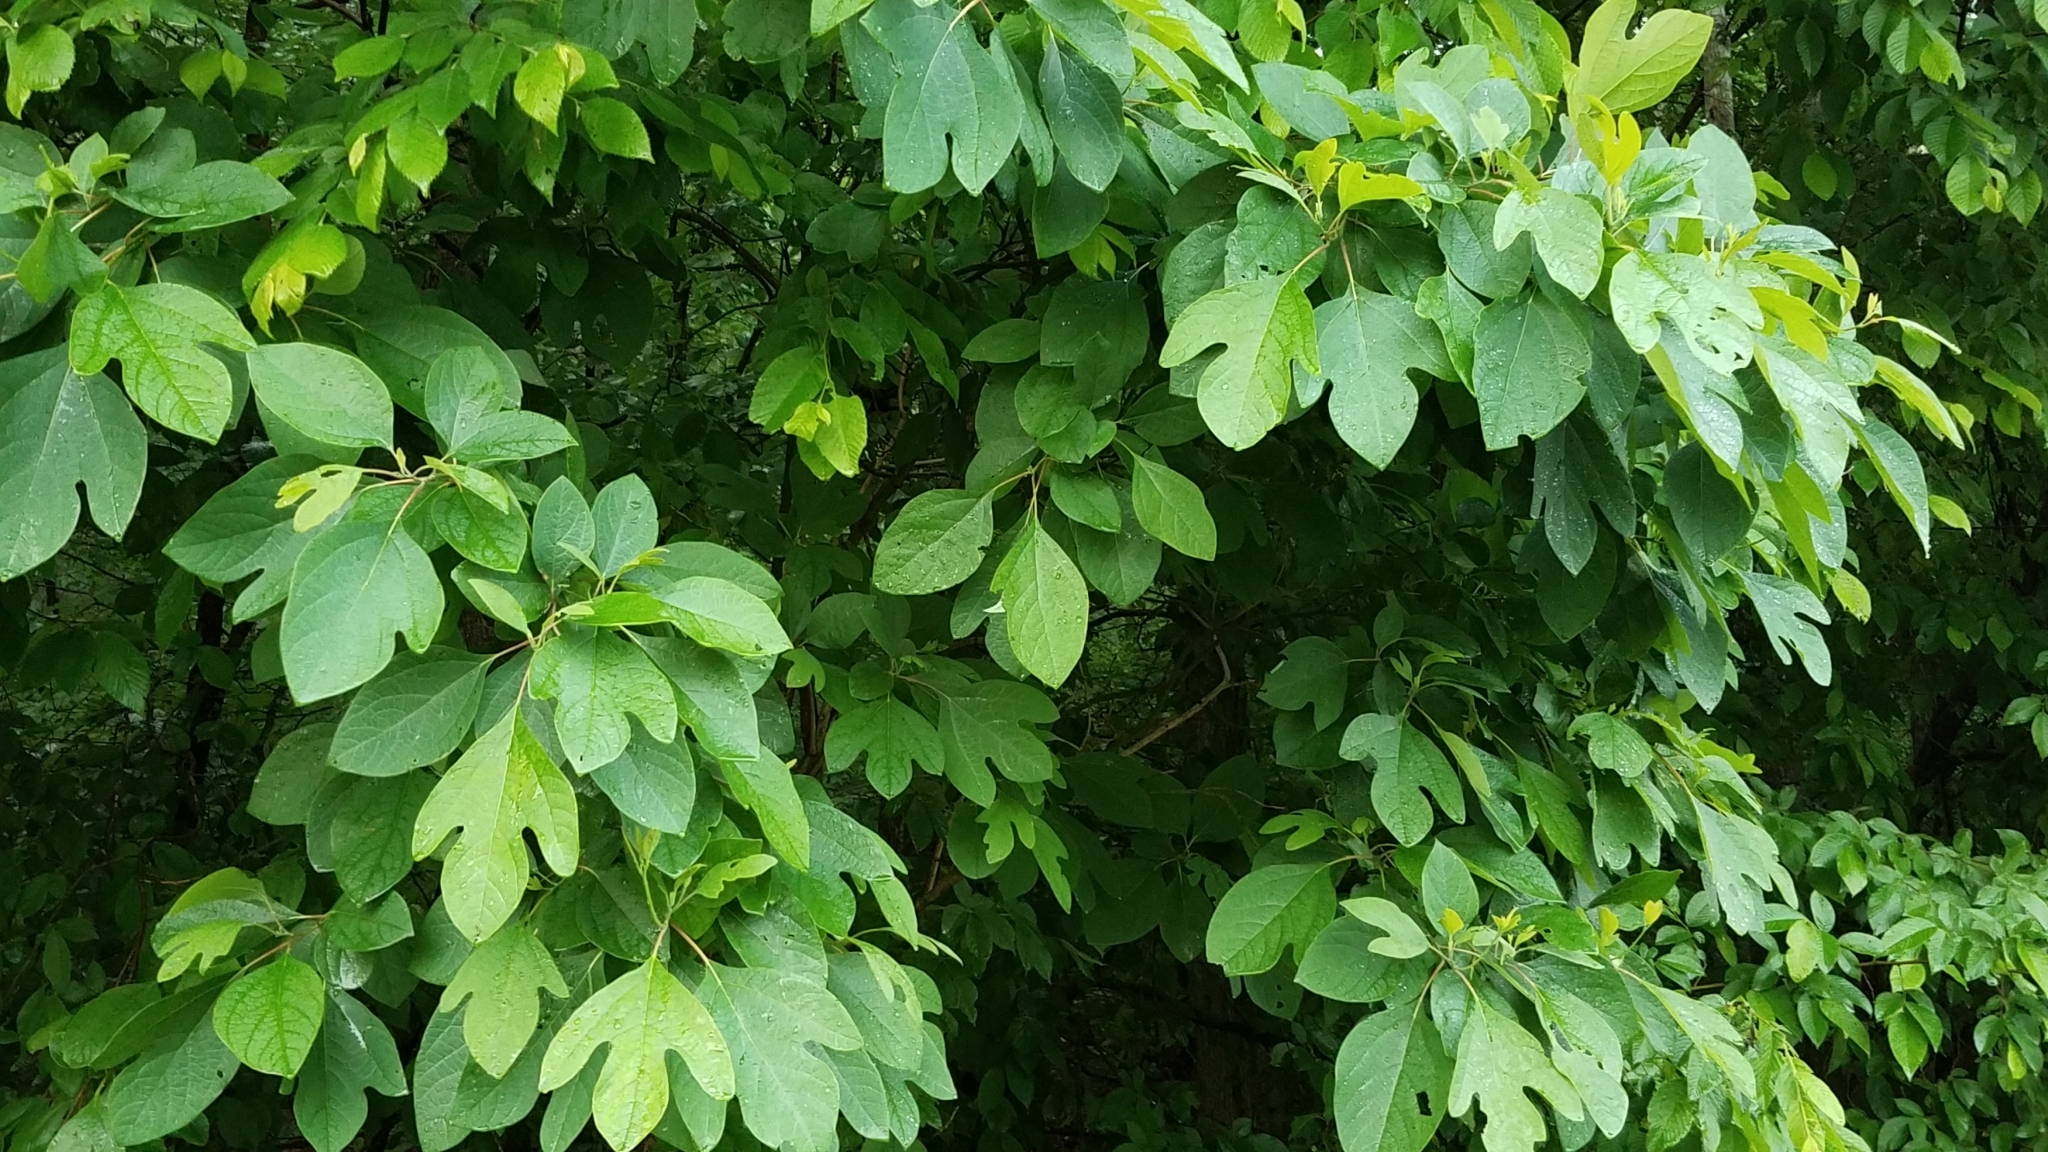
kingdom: Plantae
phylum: Tracheophyta
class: Magnoliopsida
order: Laurales
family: Lauraceae
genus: Sassafras
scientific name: Sassafras albidum
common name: Sassafras
